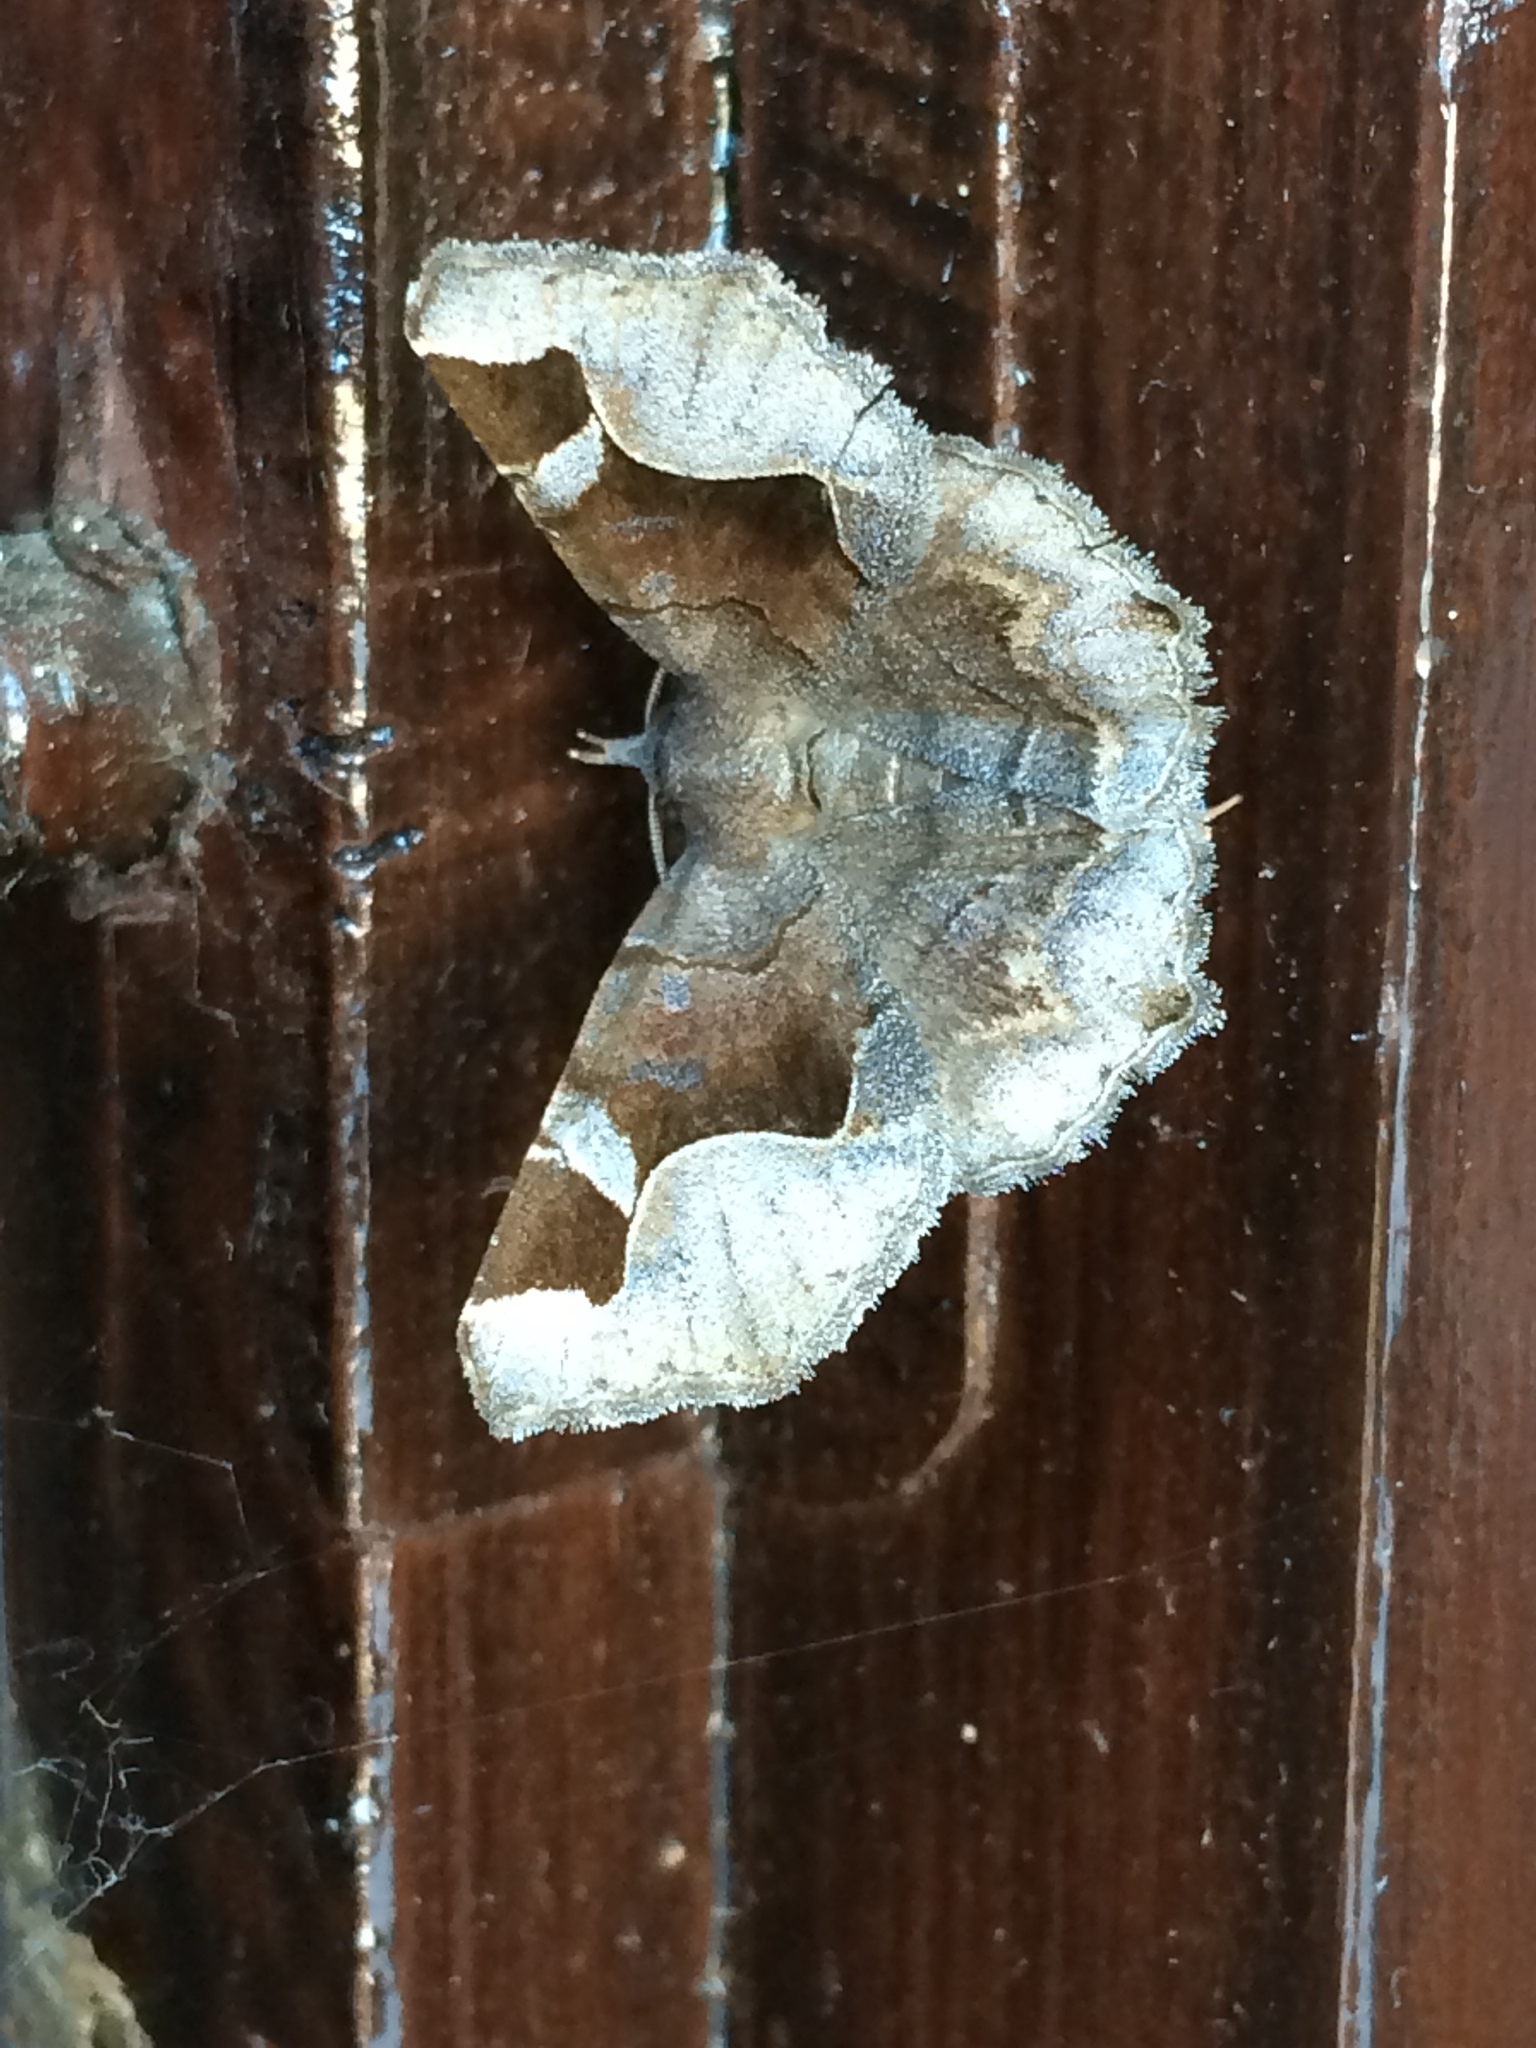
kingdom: Animalia
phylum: Arthropoda
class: Insecta
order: Lepidoptera
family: Erebidae
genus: Zethes
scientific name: Zethes insularis
